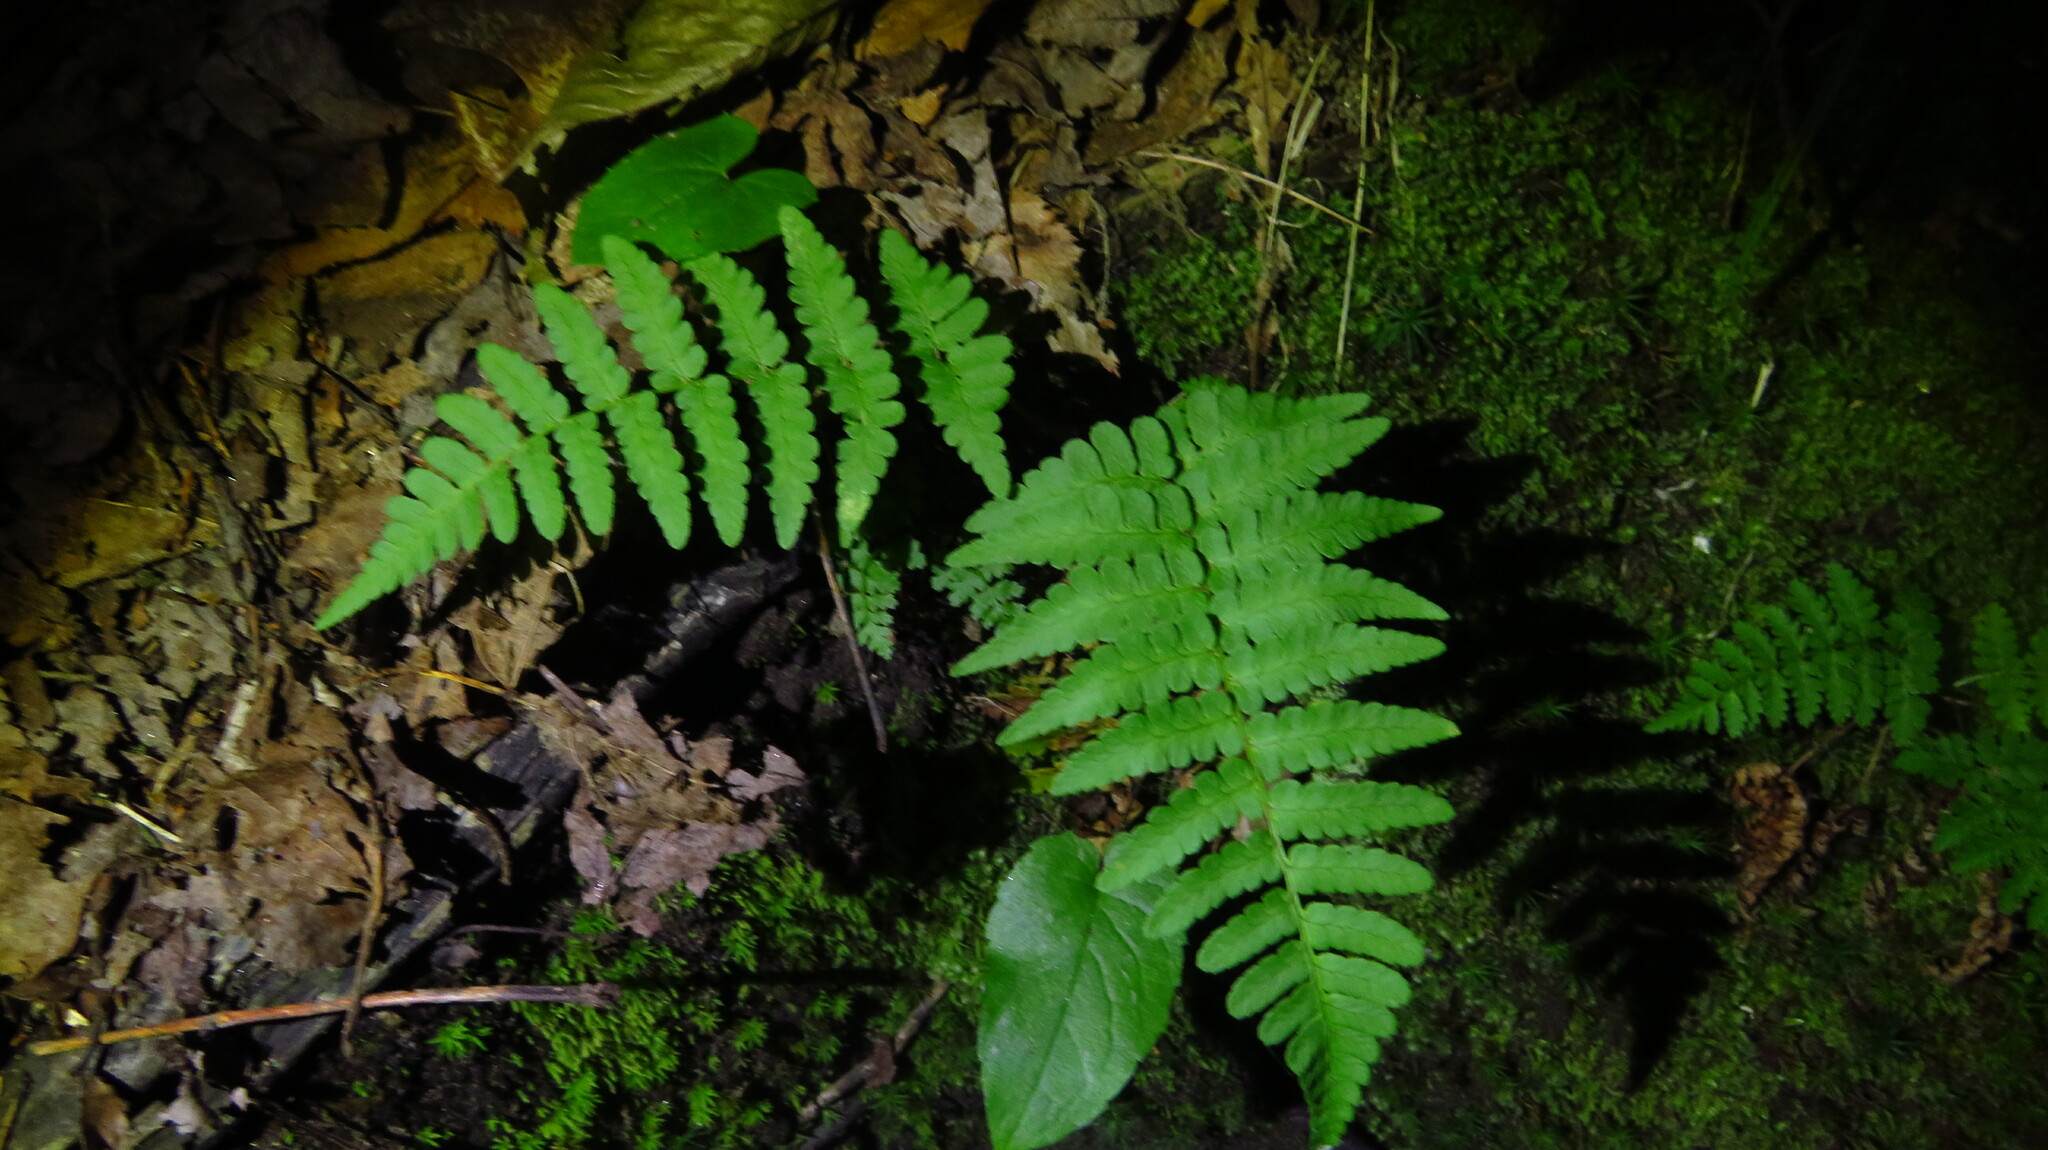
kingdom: Plantae
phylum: Tracheophyta
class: Polypodiopsida
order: Polypodiales
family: Dryopteridaceae
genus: Dryopteris
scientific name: Dryopteris marginalis
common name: Marginal wood fern
